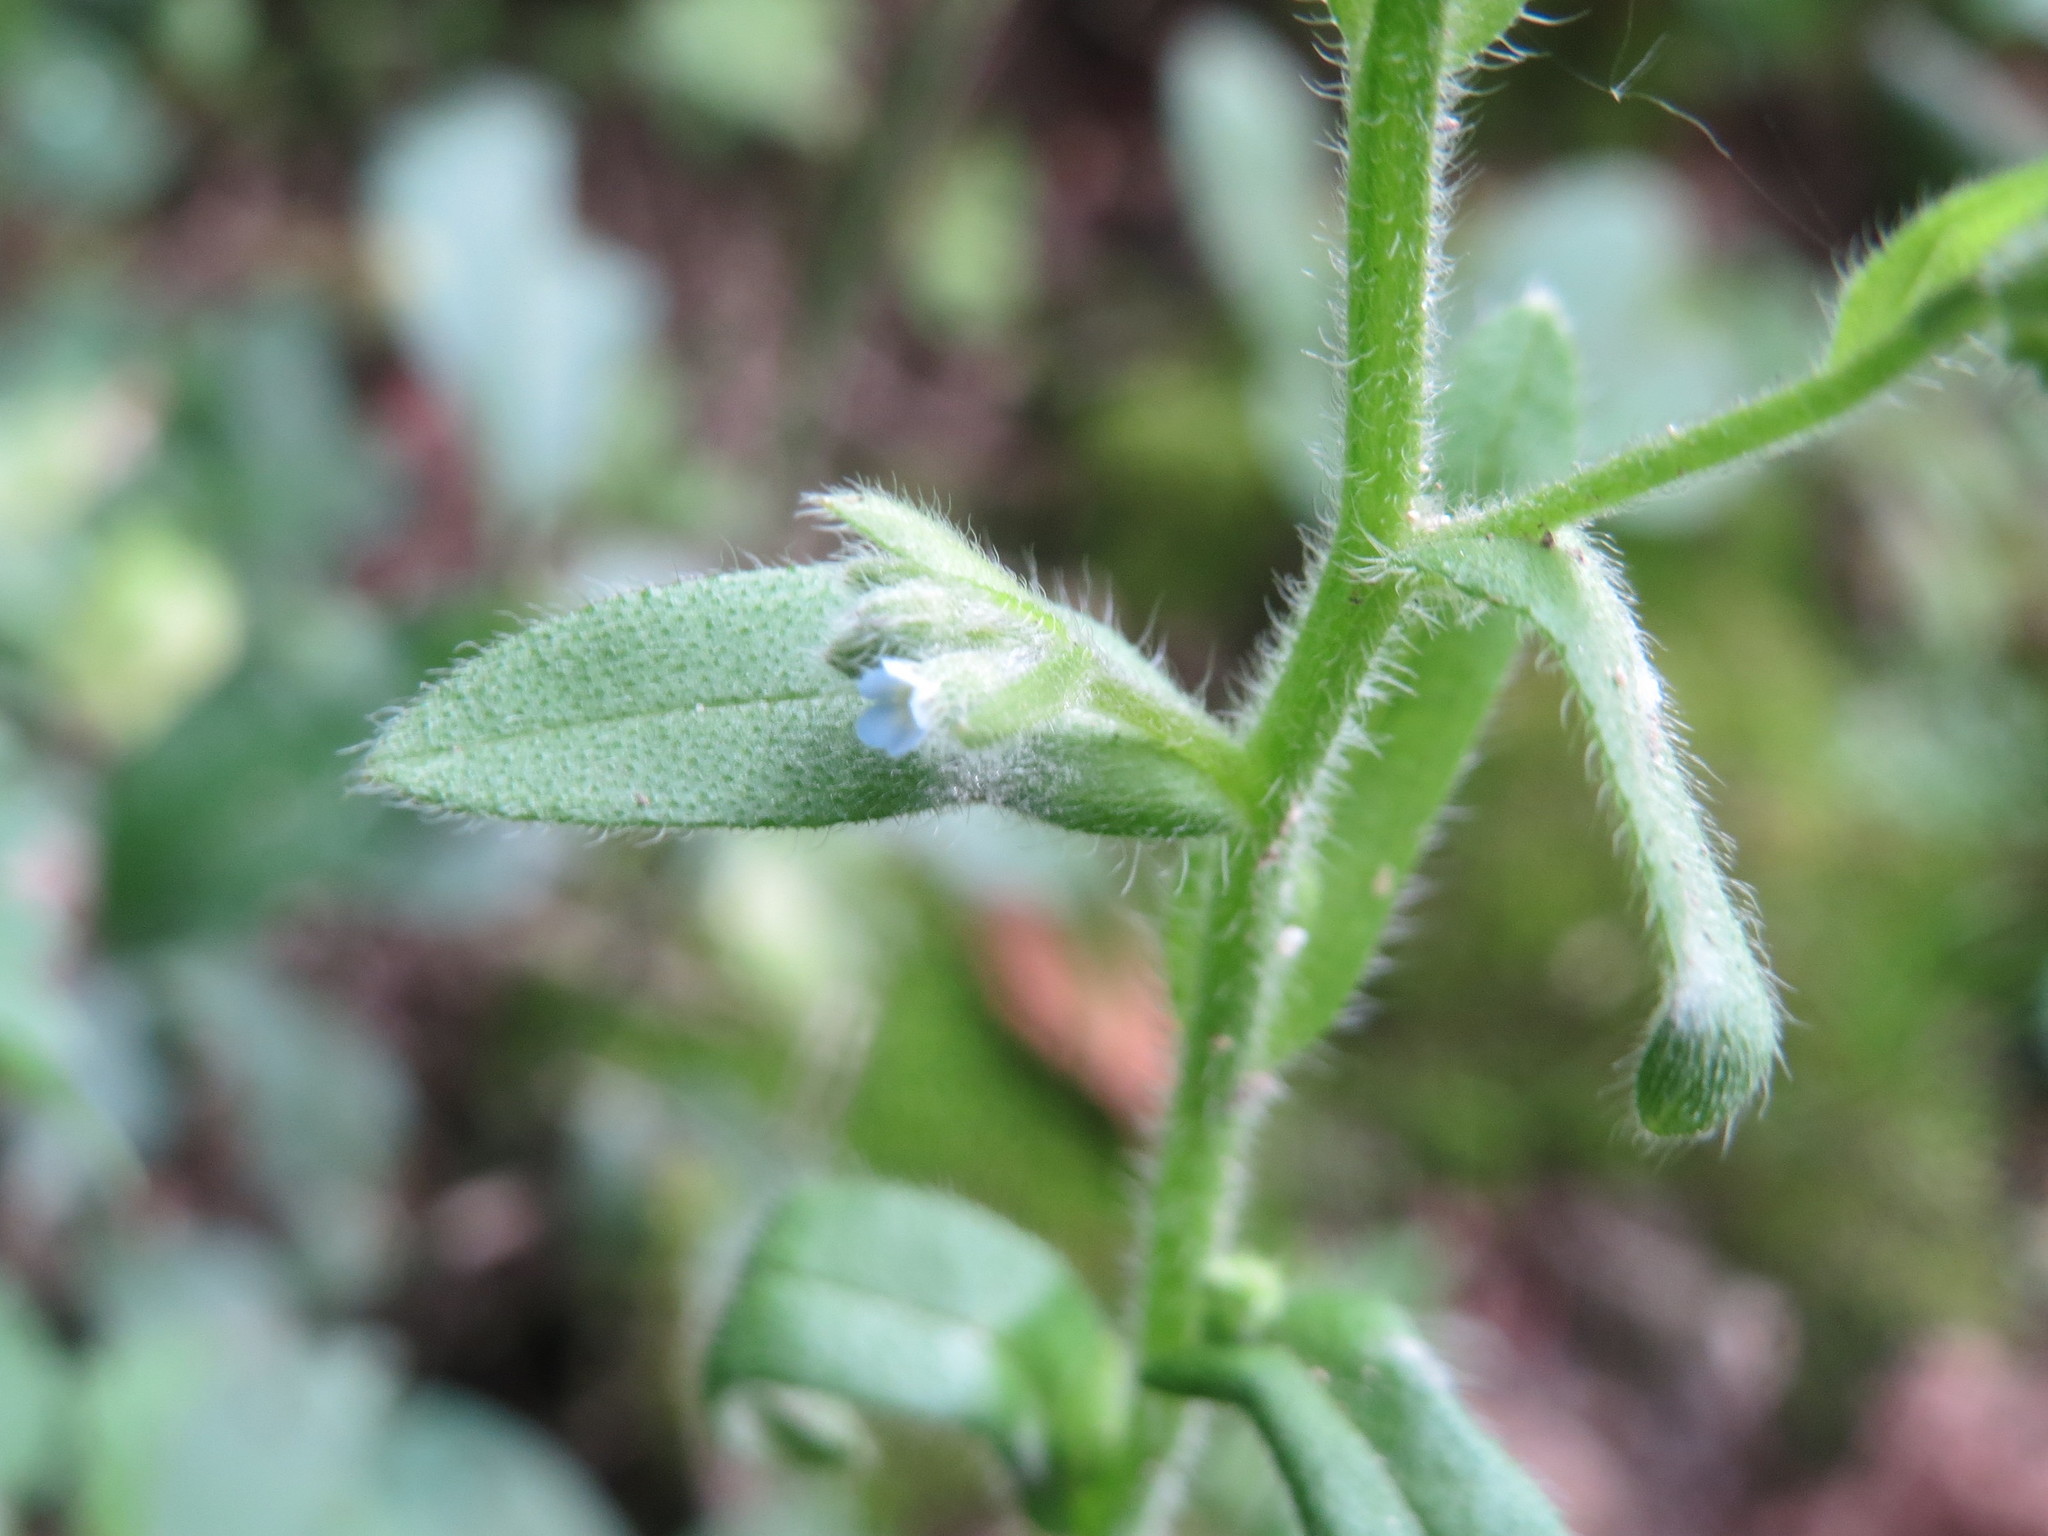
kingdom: Plantae
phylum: Tracheophyta
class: Magnoliopsida
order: Boraginales
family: Boraginaceae
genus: Myosotis
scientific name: Myosotis arvensis
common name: Field forget-me-not
